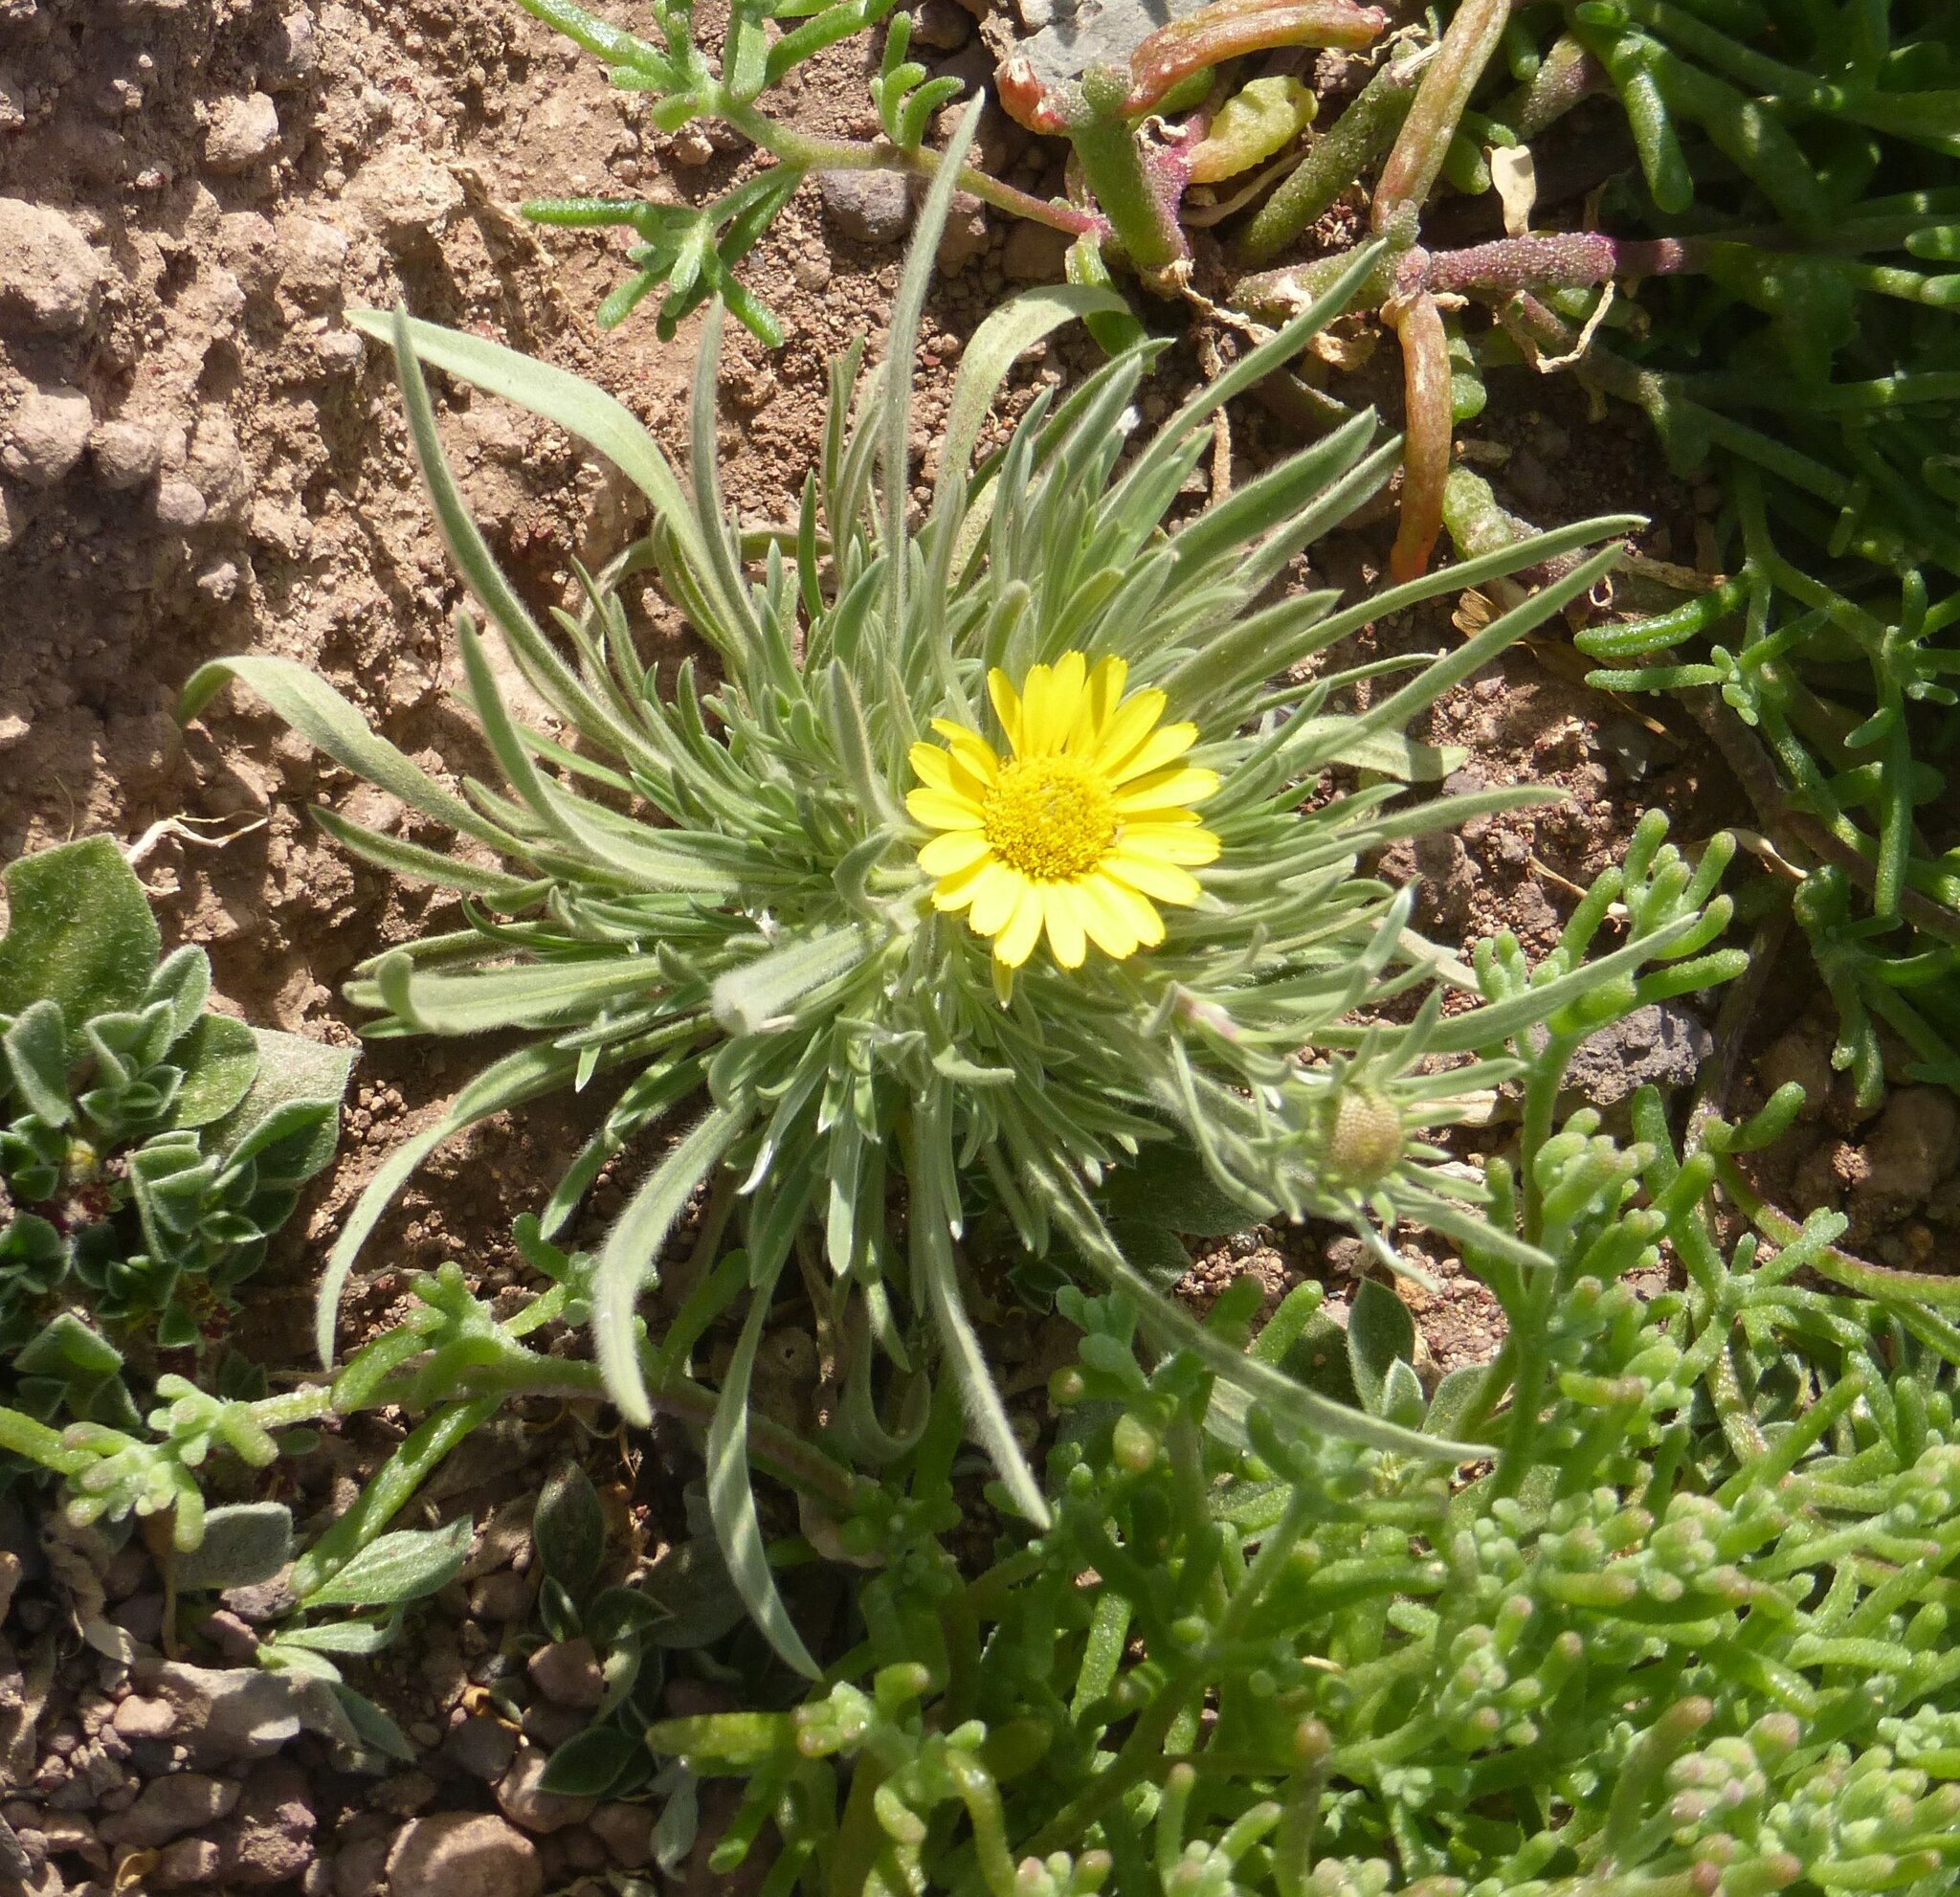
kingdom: Plantae
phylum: Tracheophyta
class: Magnoliopsida
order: Asterales
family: Asteraceae
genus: Asteriscus
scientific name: Asteriscus graveolens
